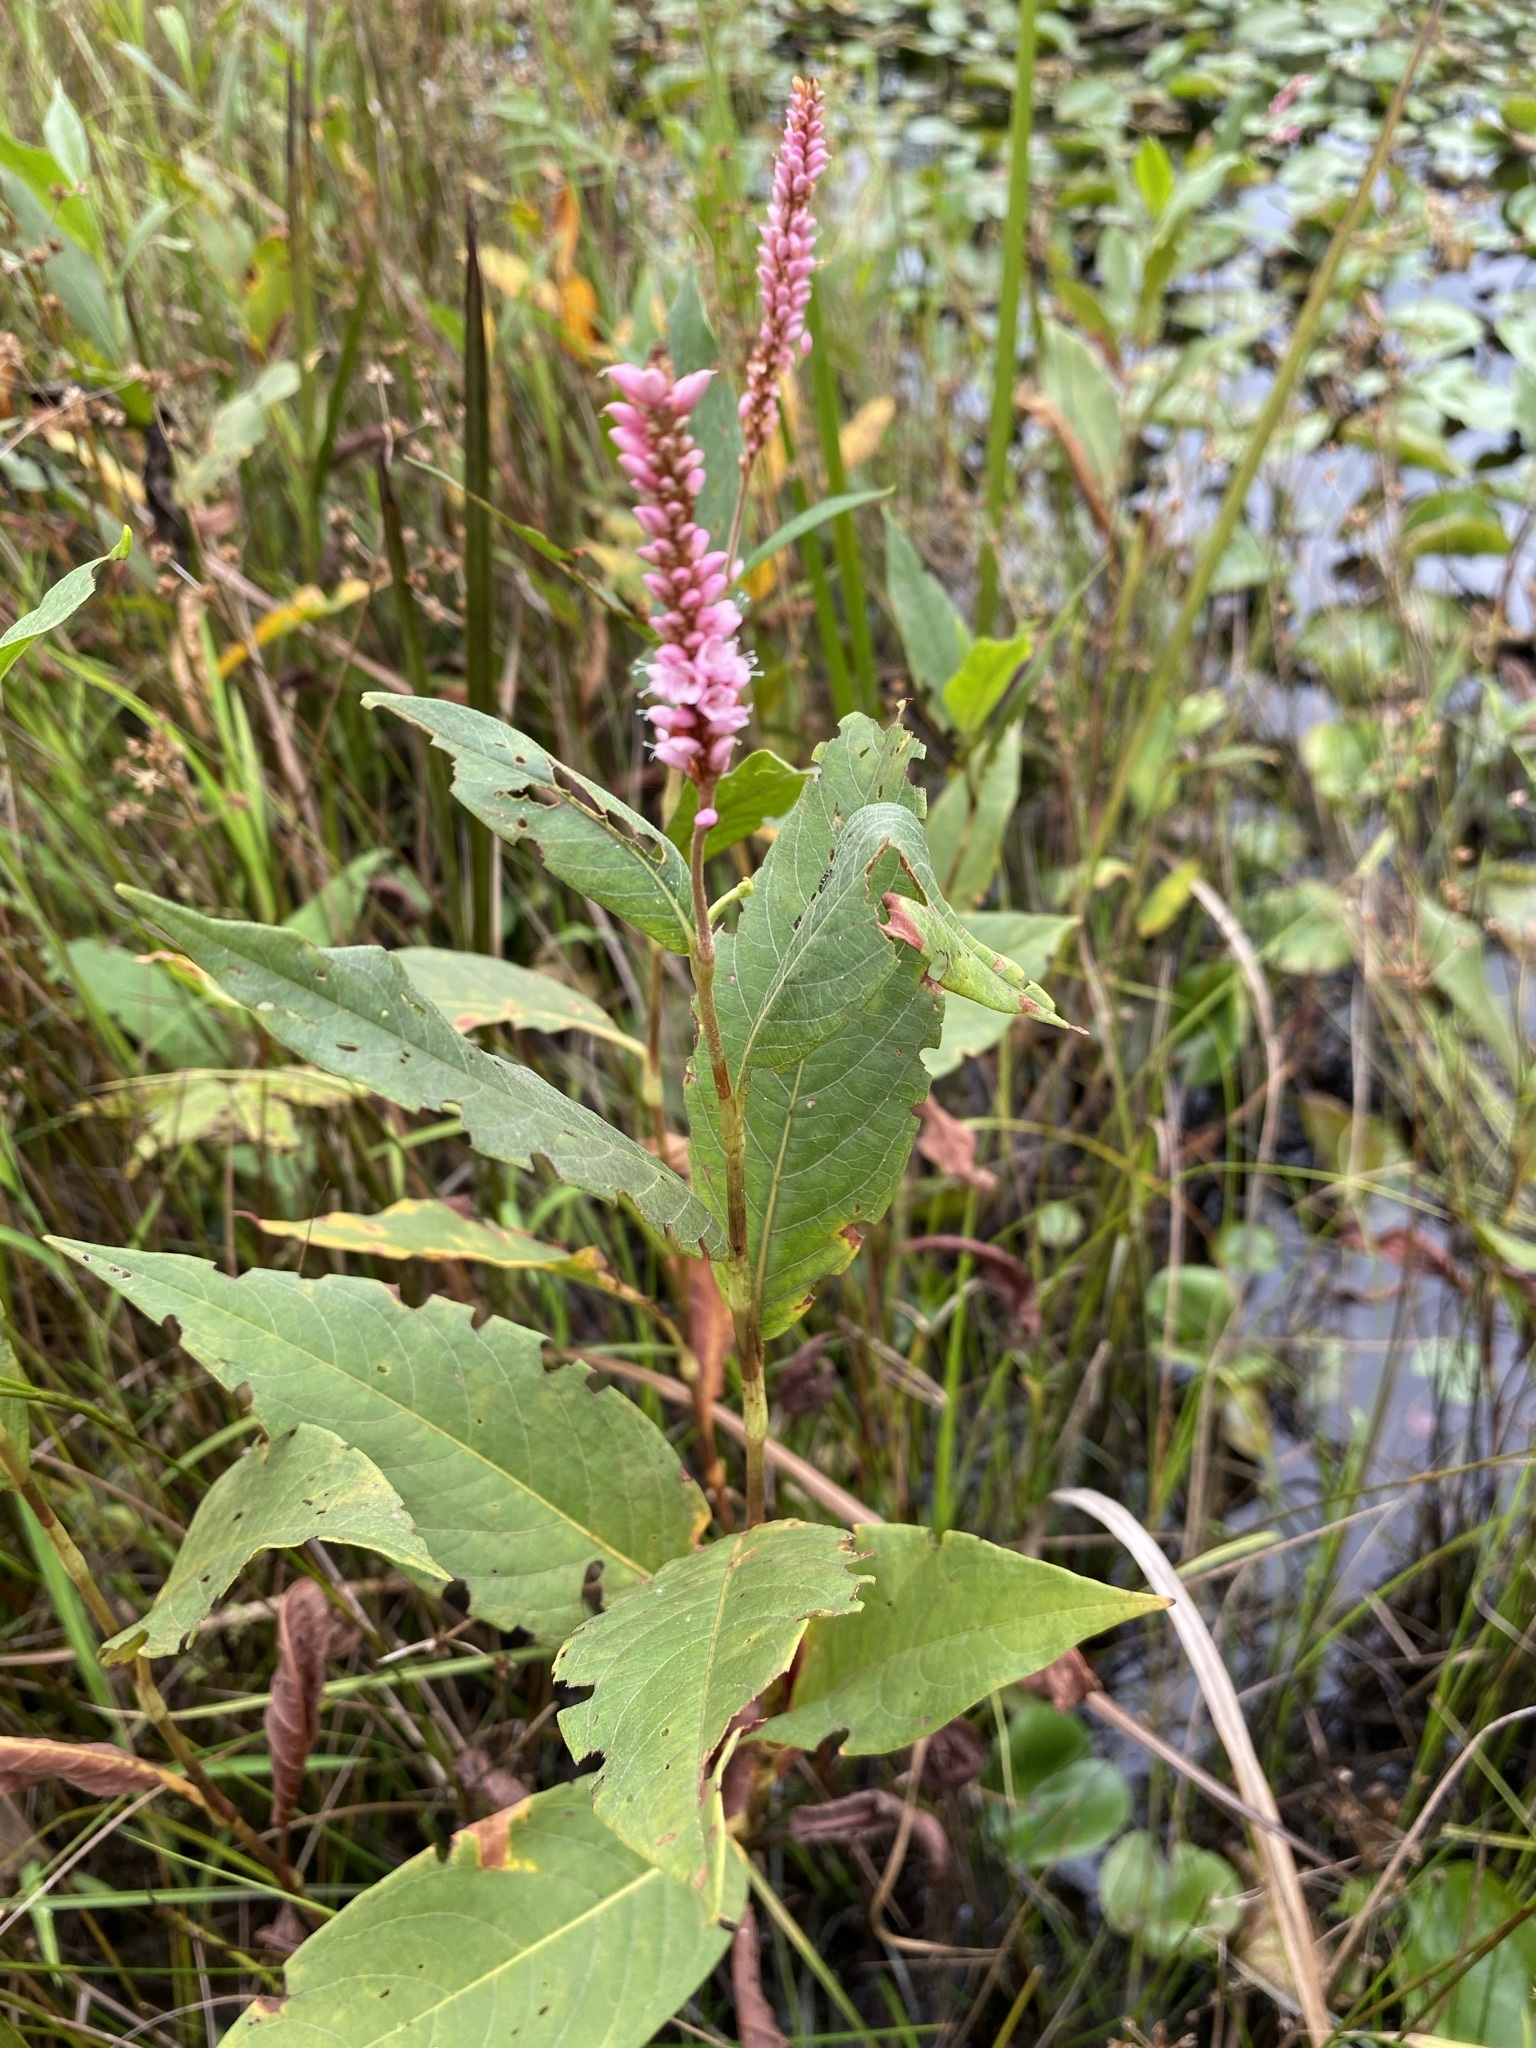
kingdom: Plantae
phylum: Tracheophyta
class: Magnoliopsida
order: Caryophyllales
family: Polygonaceae
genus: Persicaria
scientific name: Persicaria amphibia
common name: Amphibious bistort
